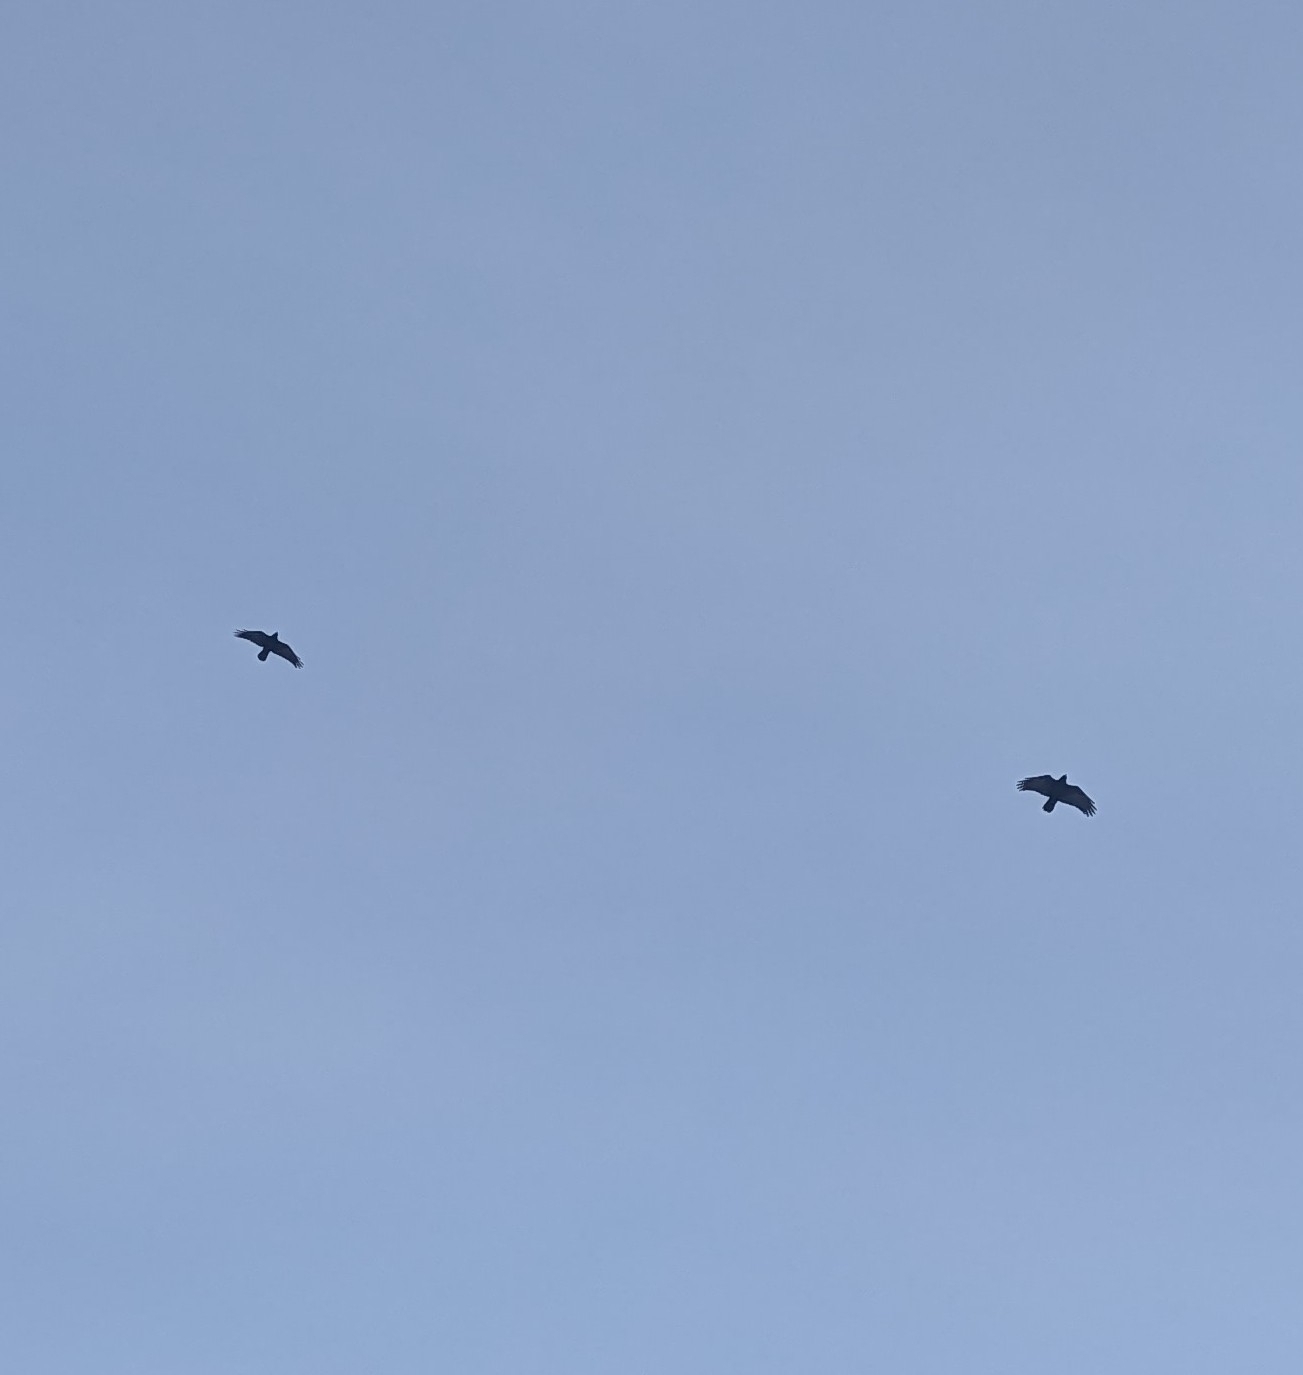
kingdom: Animalia
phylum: Chordata
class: Aves
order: Passeriformes
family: Corvidae
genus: Corvus
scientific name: Corvus corax
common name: Common raven
